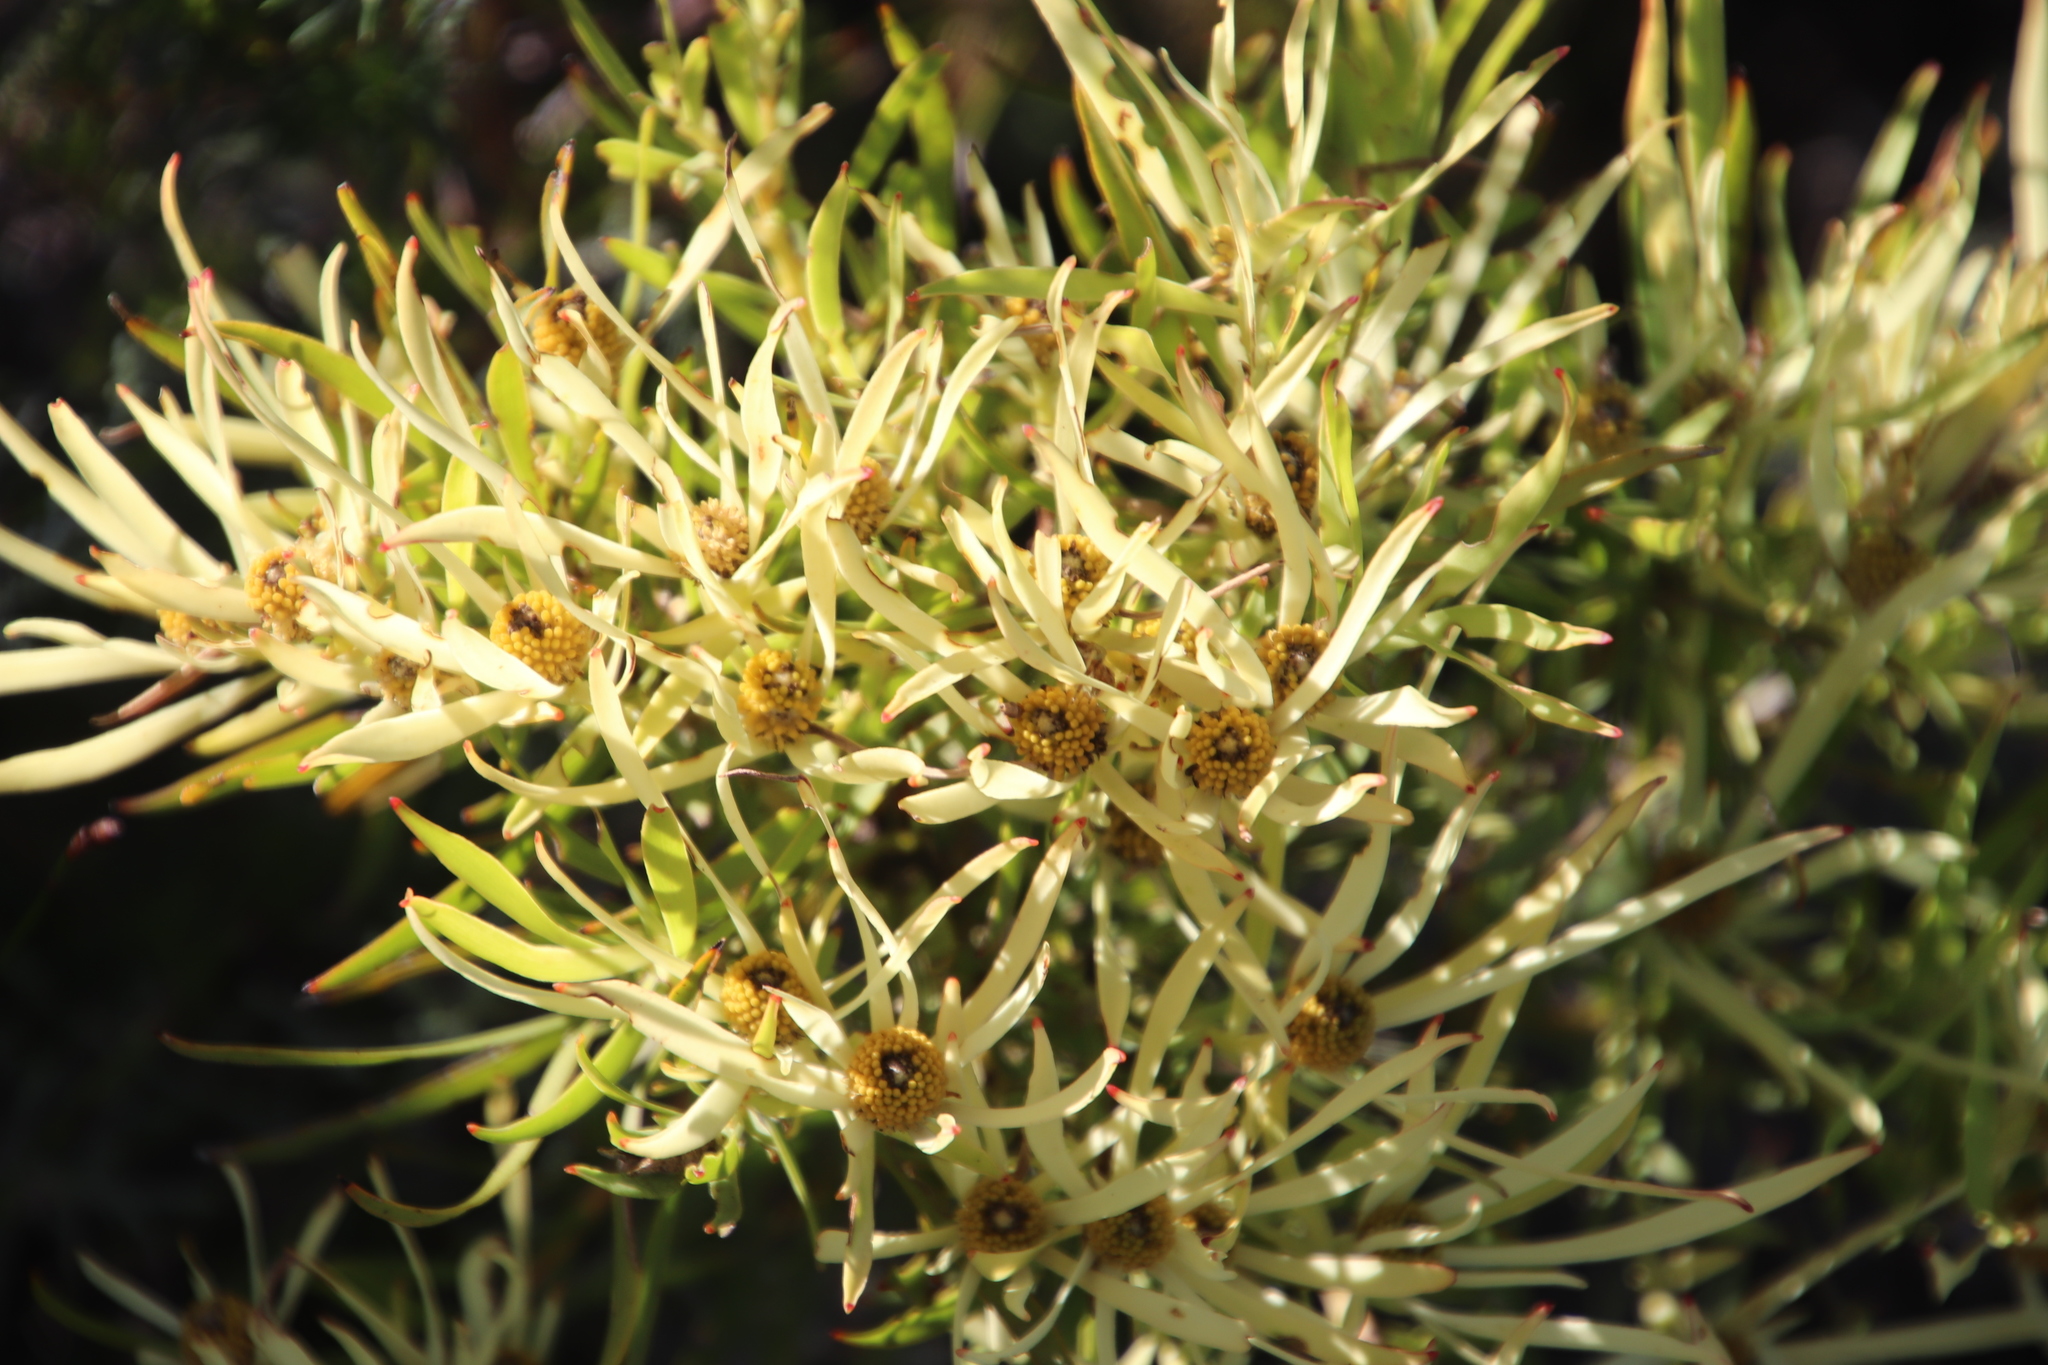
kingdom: Plantae
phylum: Tracheophyta
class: Magnoliopsida
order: Proteales
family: Proteaceae
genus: Leucadendron
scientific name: Leucadendron salignum
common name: Common sunshine conebush
